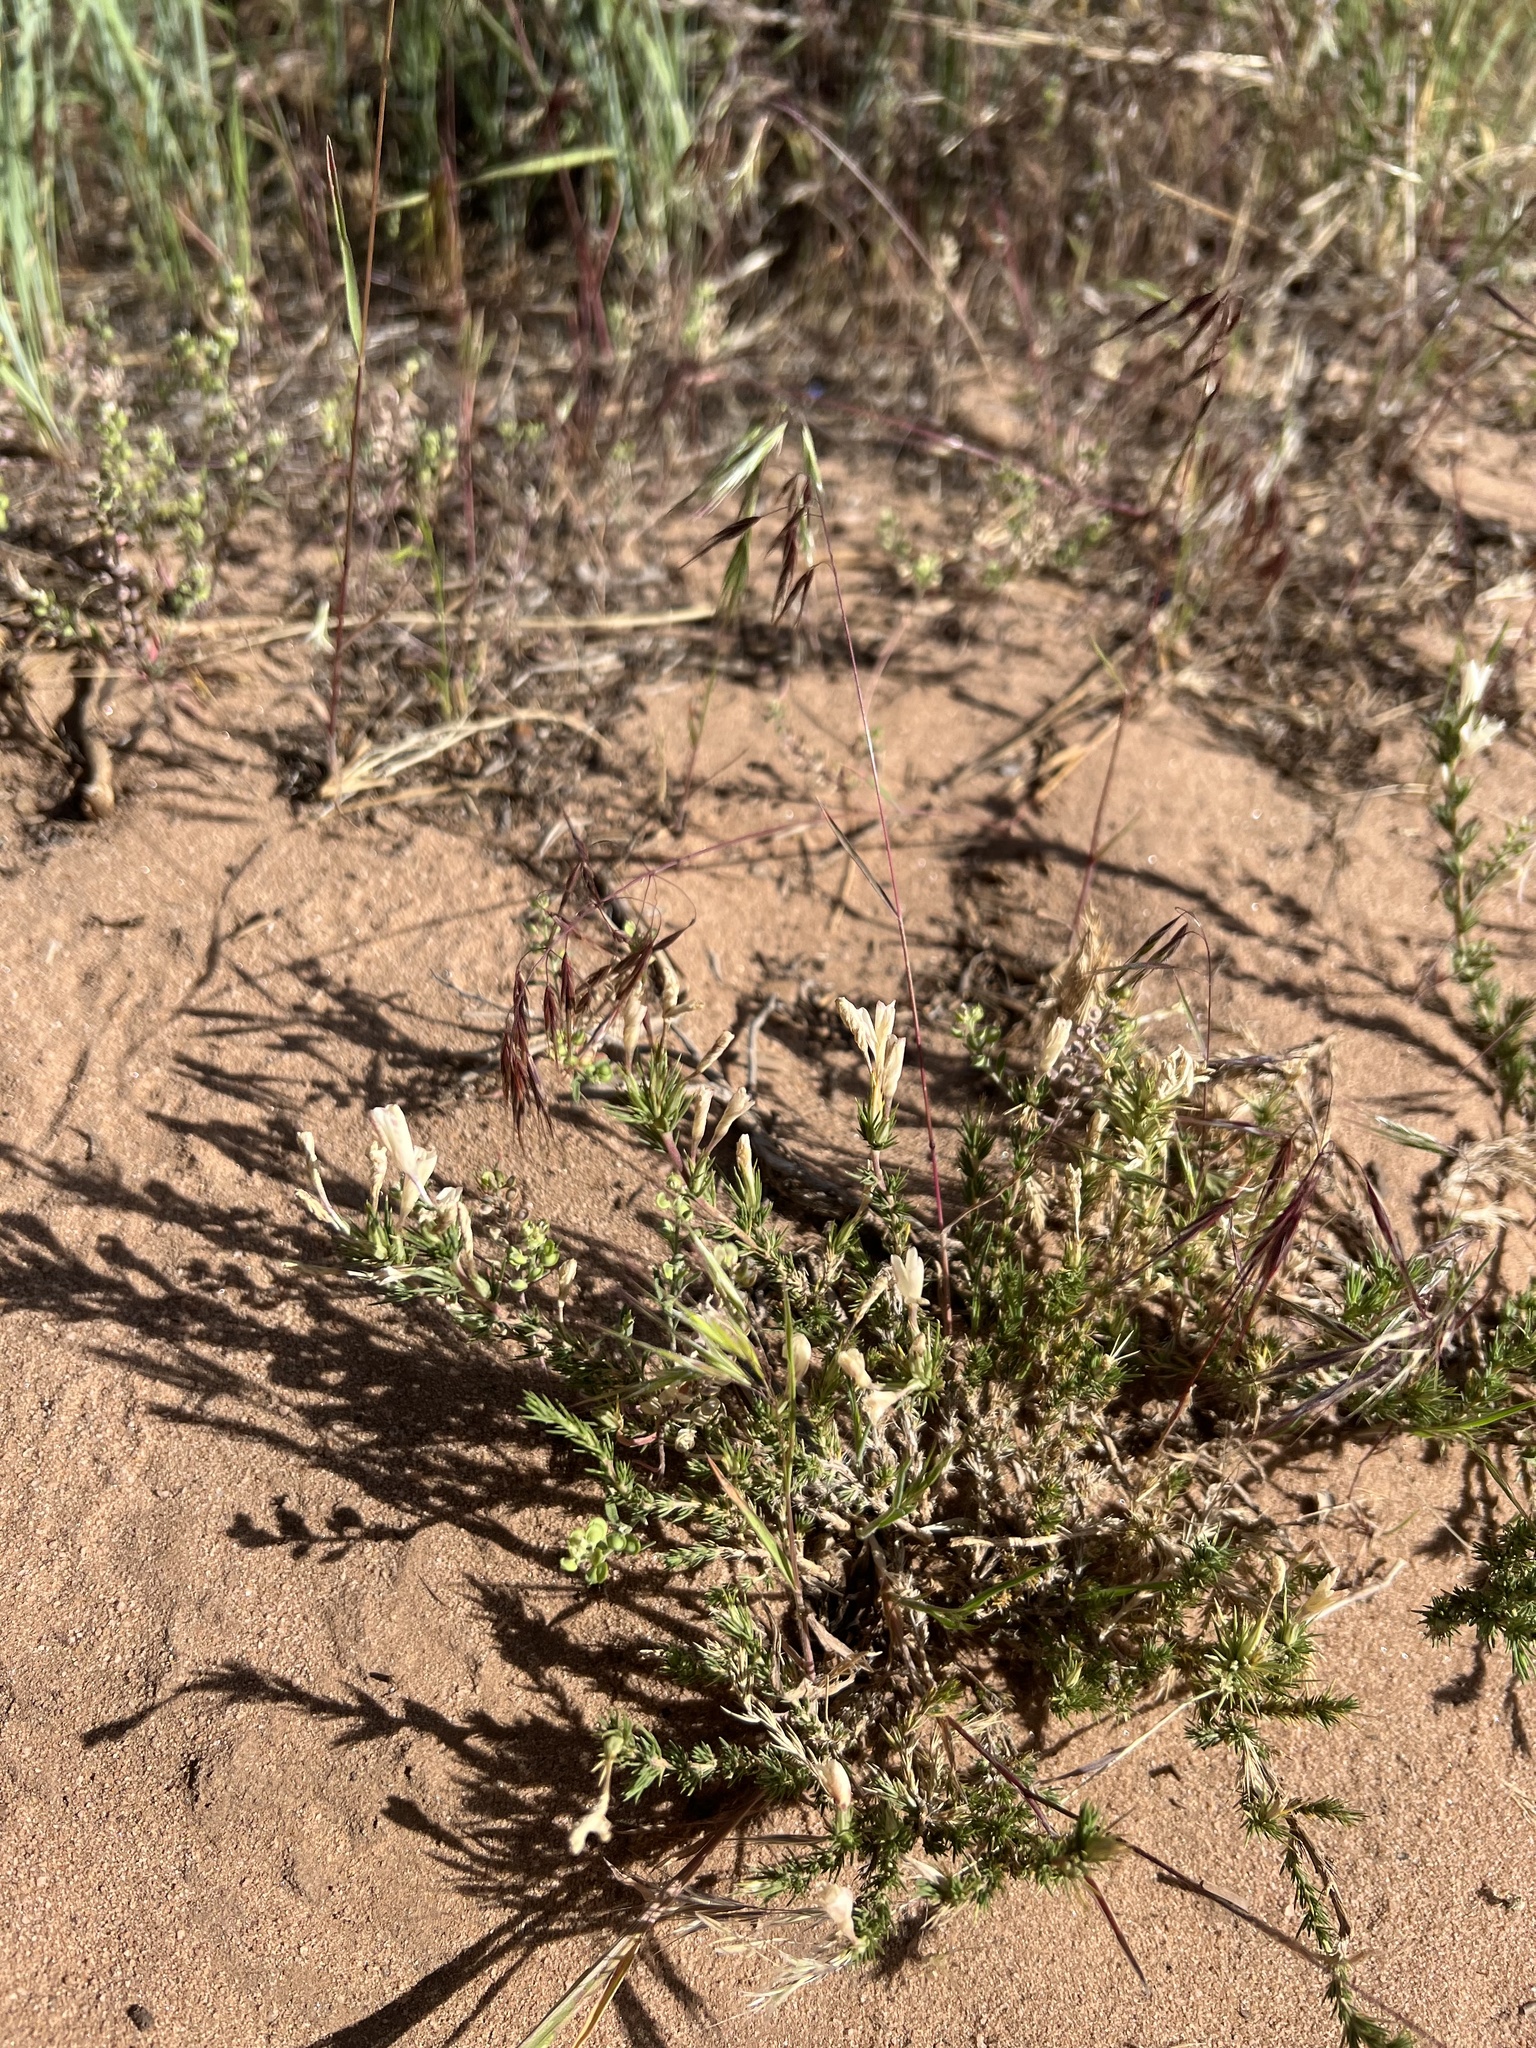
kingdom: Plantae
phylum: Tracheophyta
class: Magnoliopsida
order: Ericales
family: Polemoniaceae
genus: Linanthus
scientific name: Linanthus pungens
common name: Granite prickly phlox
